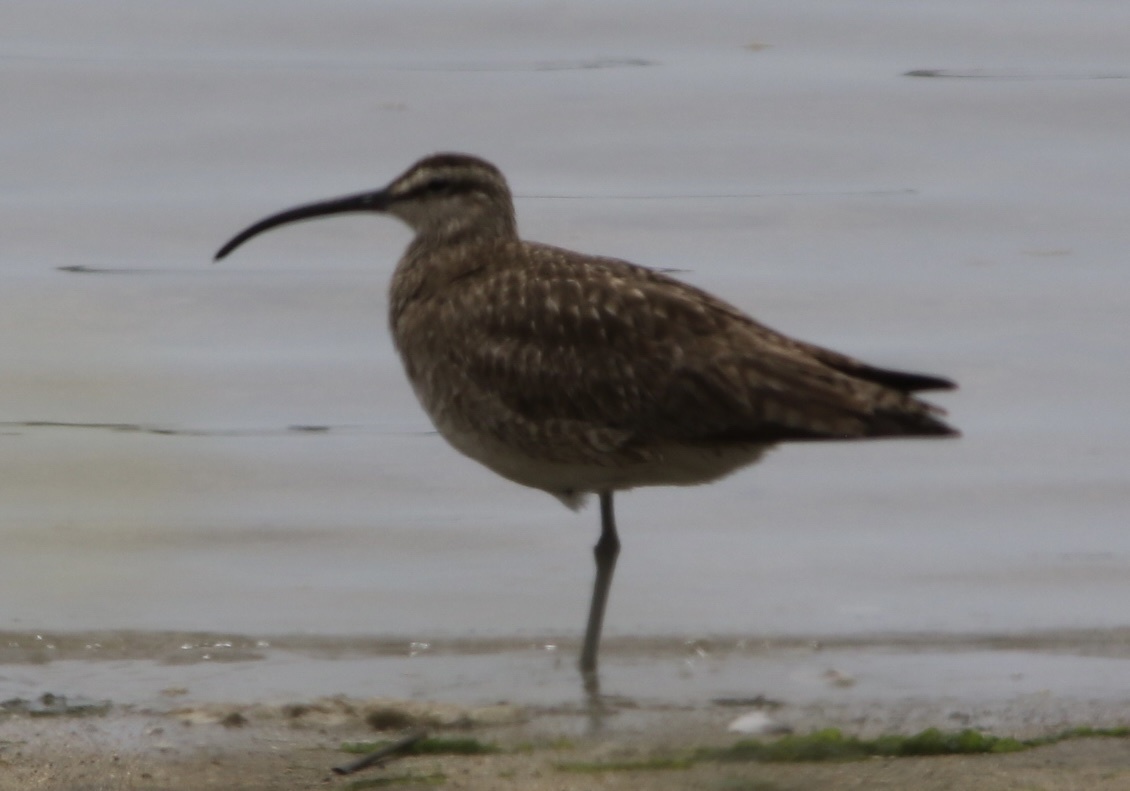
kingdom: Animalia
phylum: Chordata
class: Aves
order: Charadriiformes
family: Scolopacidae
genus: Numenius
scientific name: Numenius phaeopus
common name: Whimbrel
